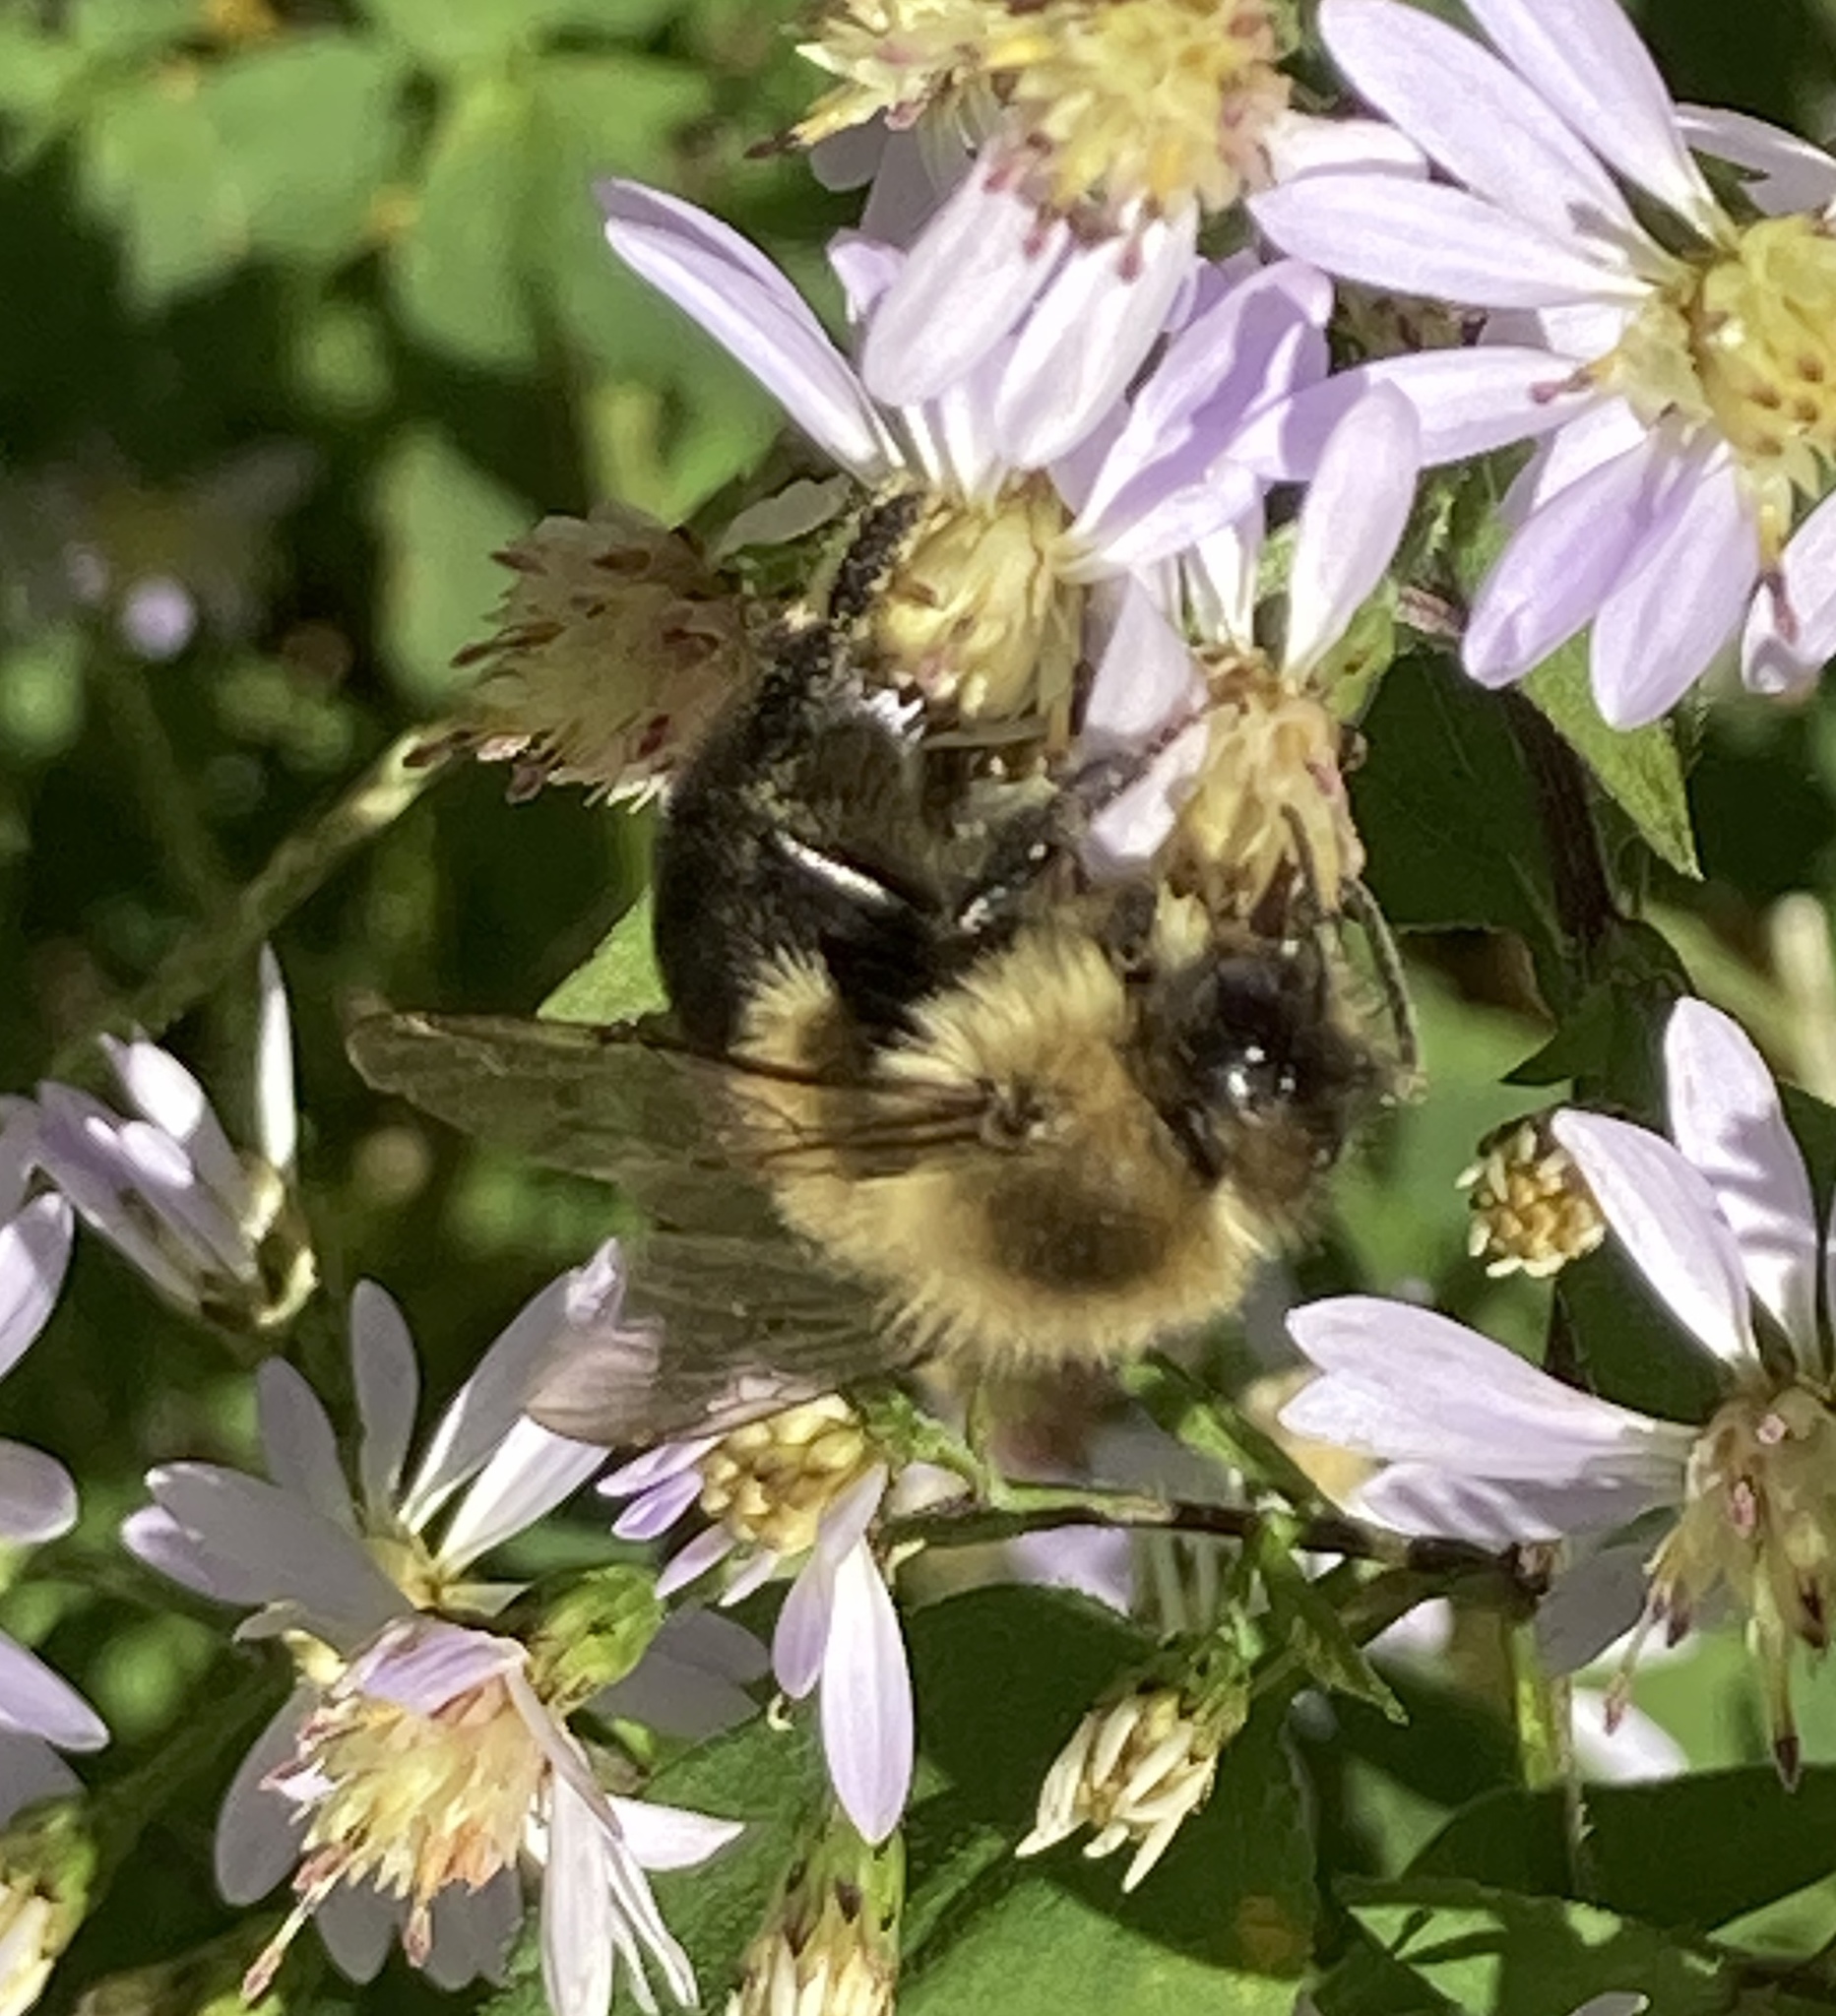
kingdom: Animalia
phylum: Arthropoda
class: Insecta
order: Hymenoptera
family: Apidae
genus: Bombus
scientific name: Bombus impatiens
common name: Common eastern bumble bee
